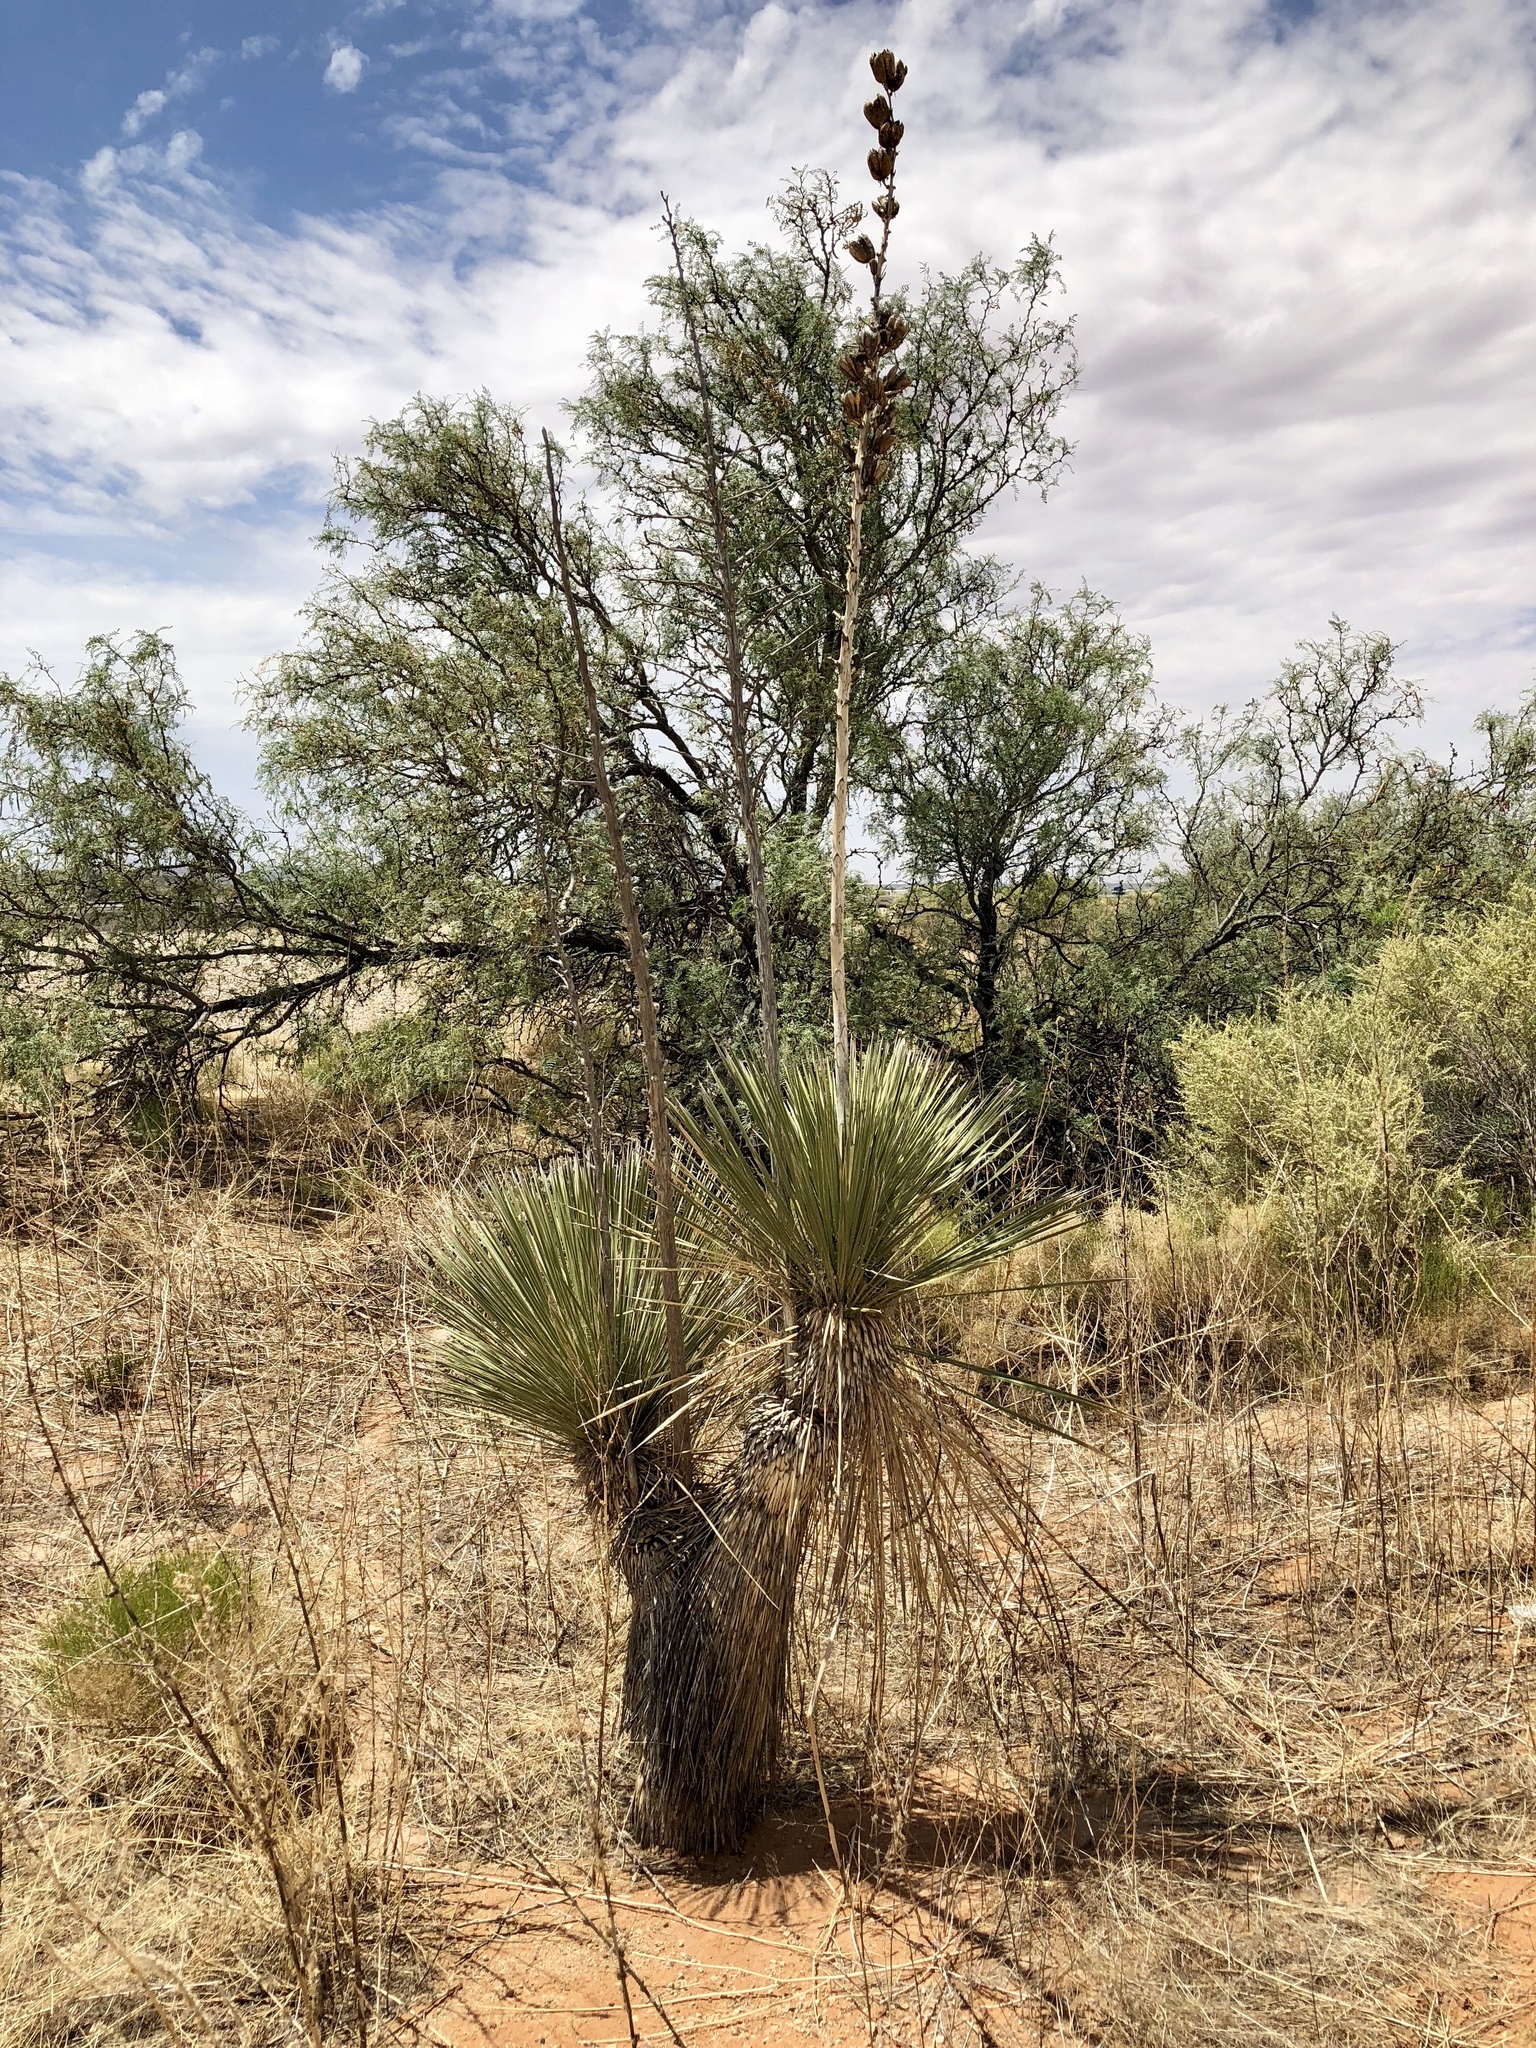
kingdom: Plantae
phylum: Tracheophyta
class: Liliopsida
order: Asparagales
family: Asparagaceae
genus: Yucca
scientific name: Yucca elata
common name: Palmella
